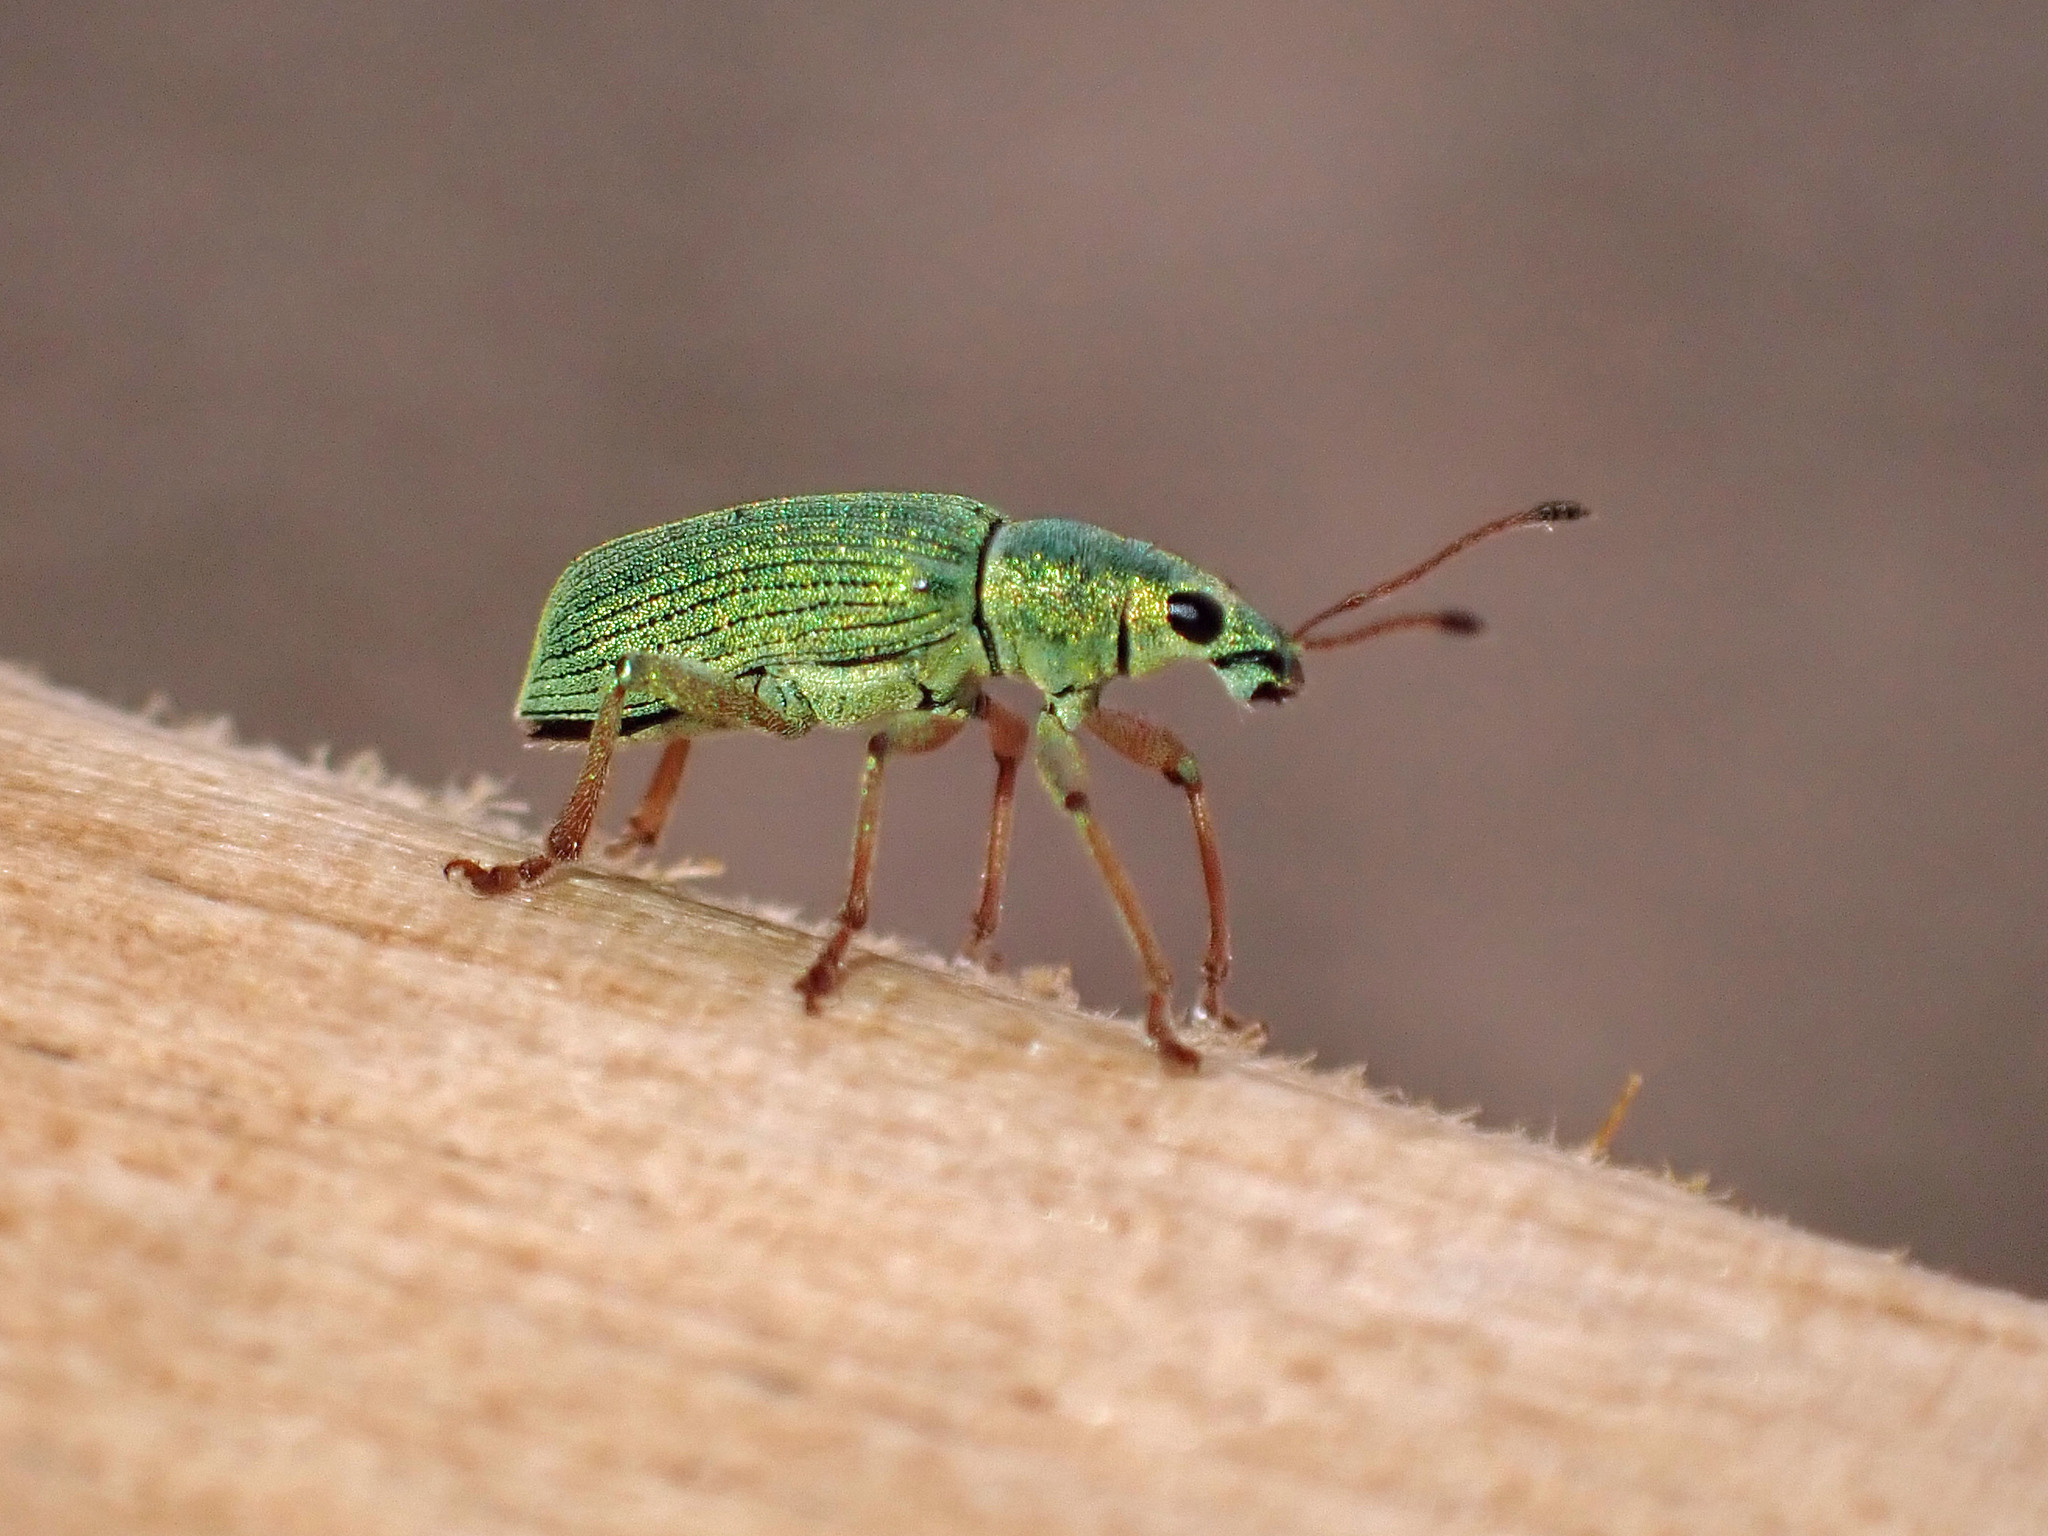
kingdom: Animalia
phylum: Arthropoda
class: Insecta
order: Coleoptera
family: Curculionidae
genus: Polydrusus
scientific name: Polydrusus formosus
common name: Weevil
